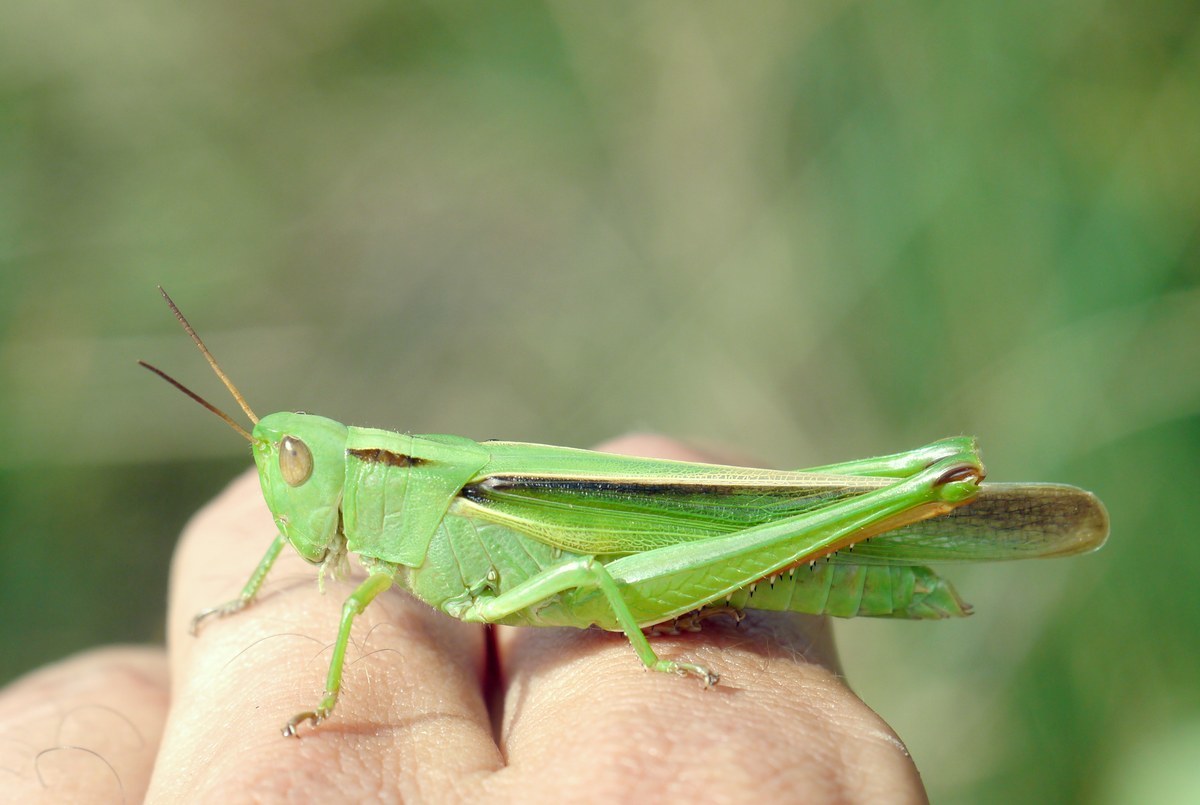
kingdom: Animalia
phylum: Arthropoda
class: Insecta
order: Orthoptera
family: Acrididae
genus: Paracinema
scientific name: Paracinema tricolor
